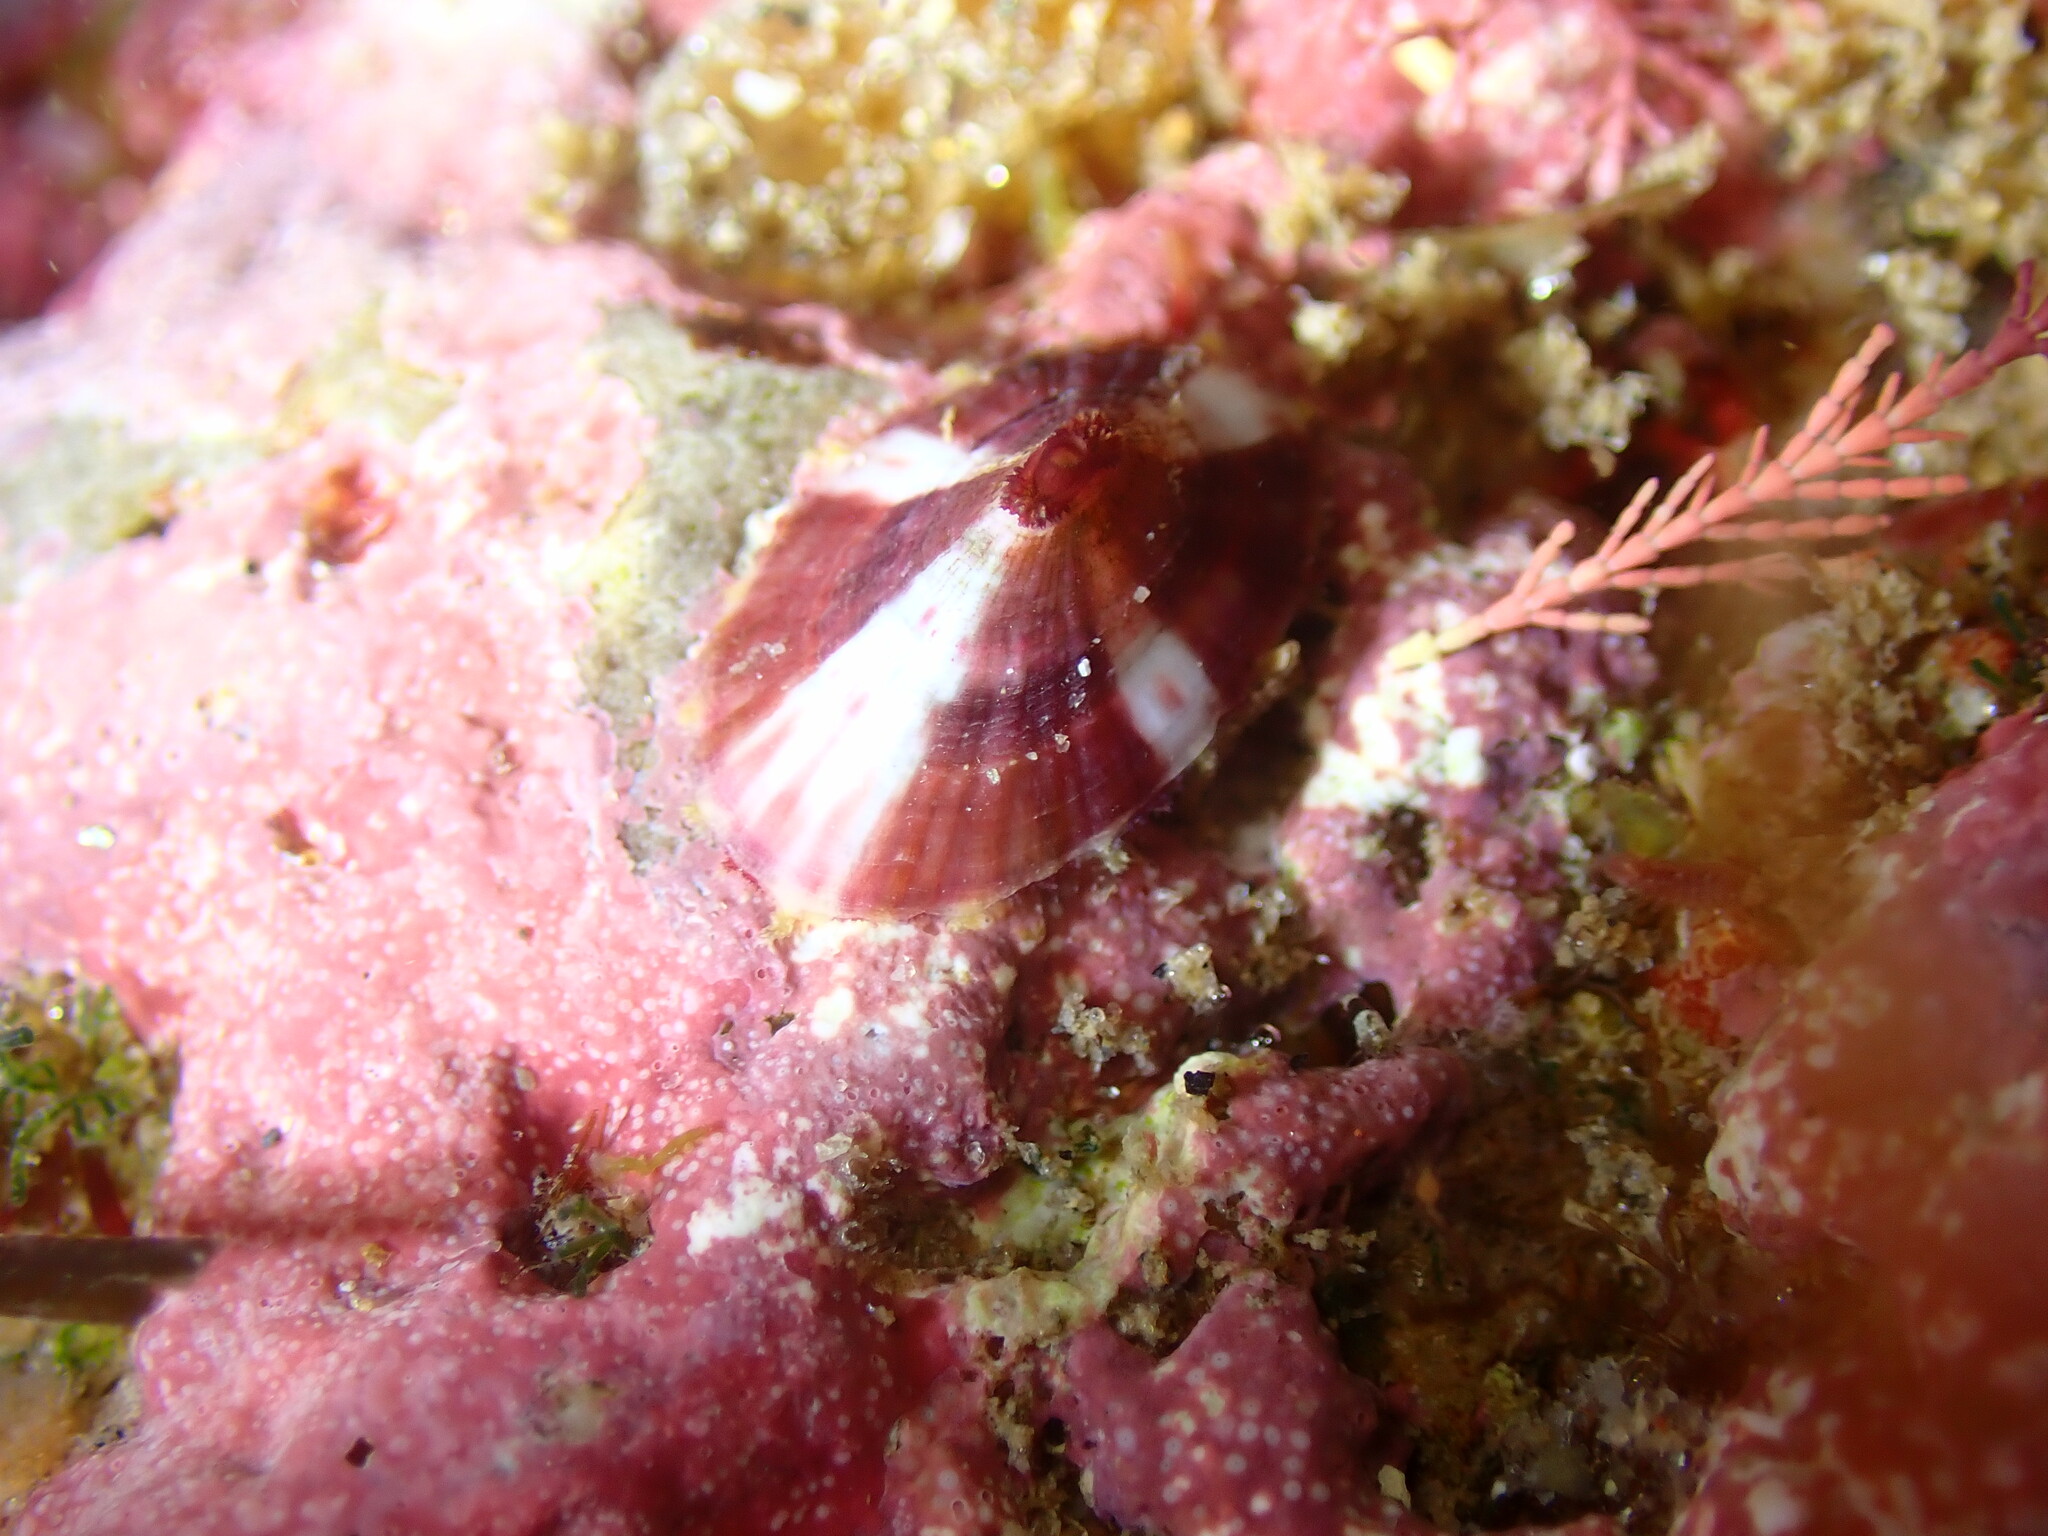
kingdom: Animalia
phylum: Mollusca
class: Gastropoda
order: Lepetellida
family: Fissurellidae
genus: Fissurella
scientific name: Fissurella volcano
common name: Volcano keyhole limpet
